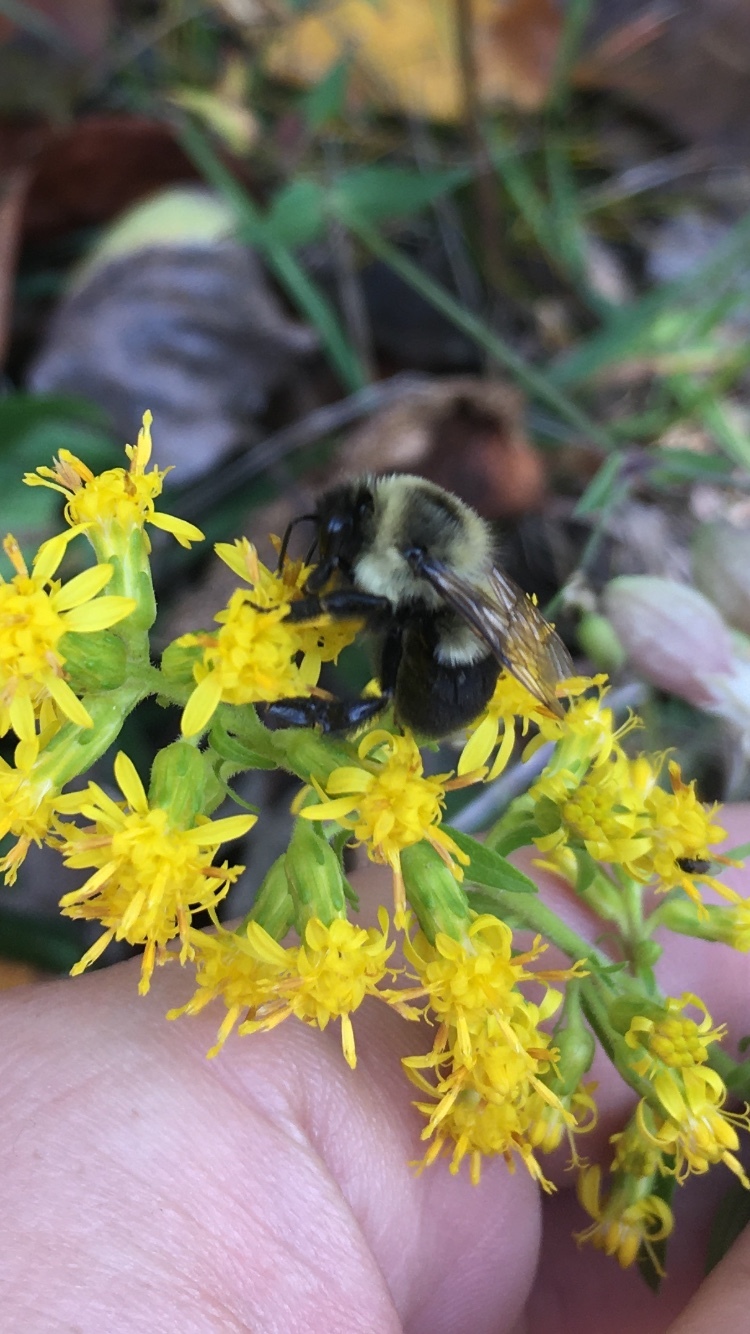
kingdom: Animalia
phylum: Arthropoda
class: Insecta
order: Hymenoptera
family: Apidae
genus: Bombus
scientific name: Bombus impatiens
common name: Common eastern bumble bee
